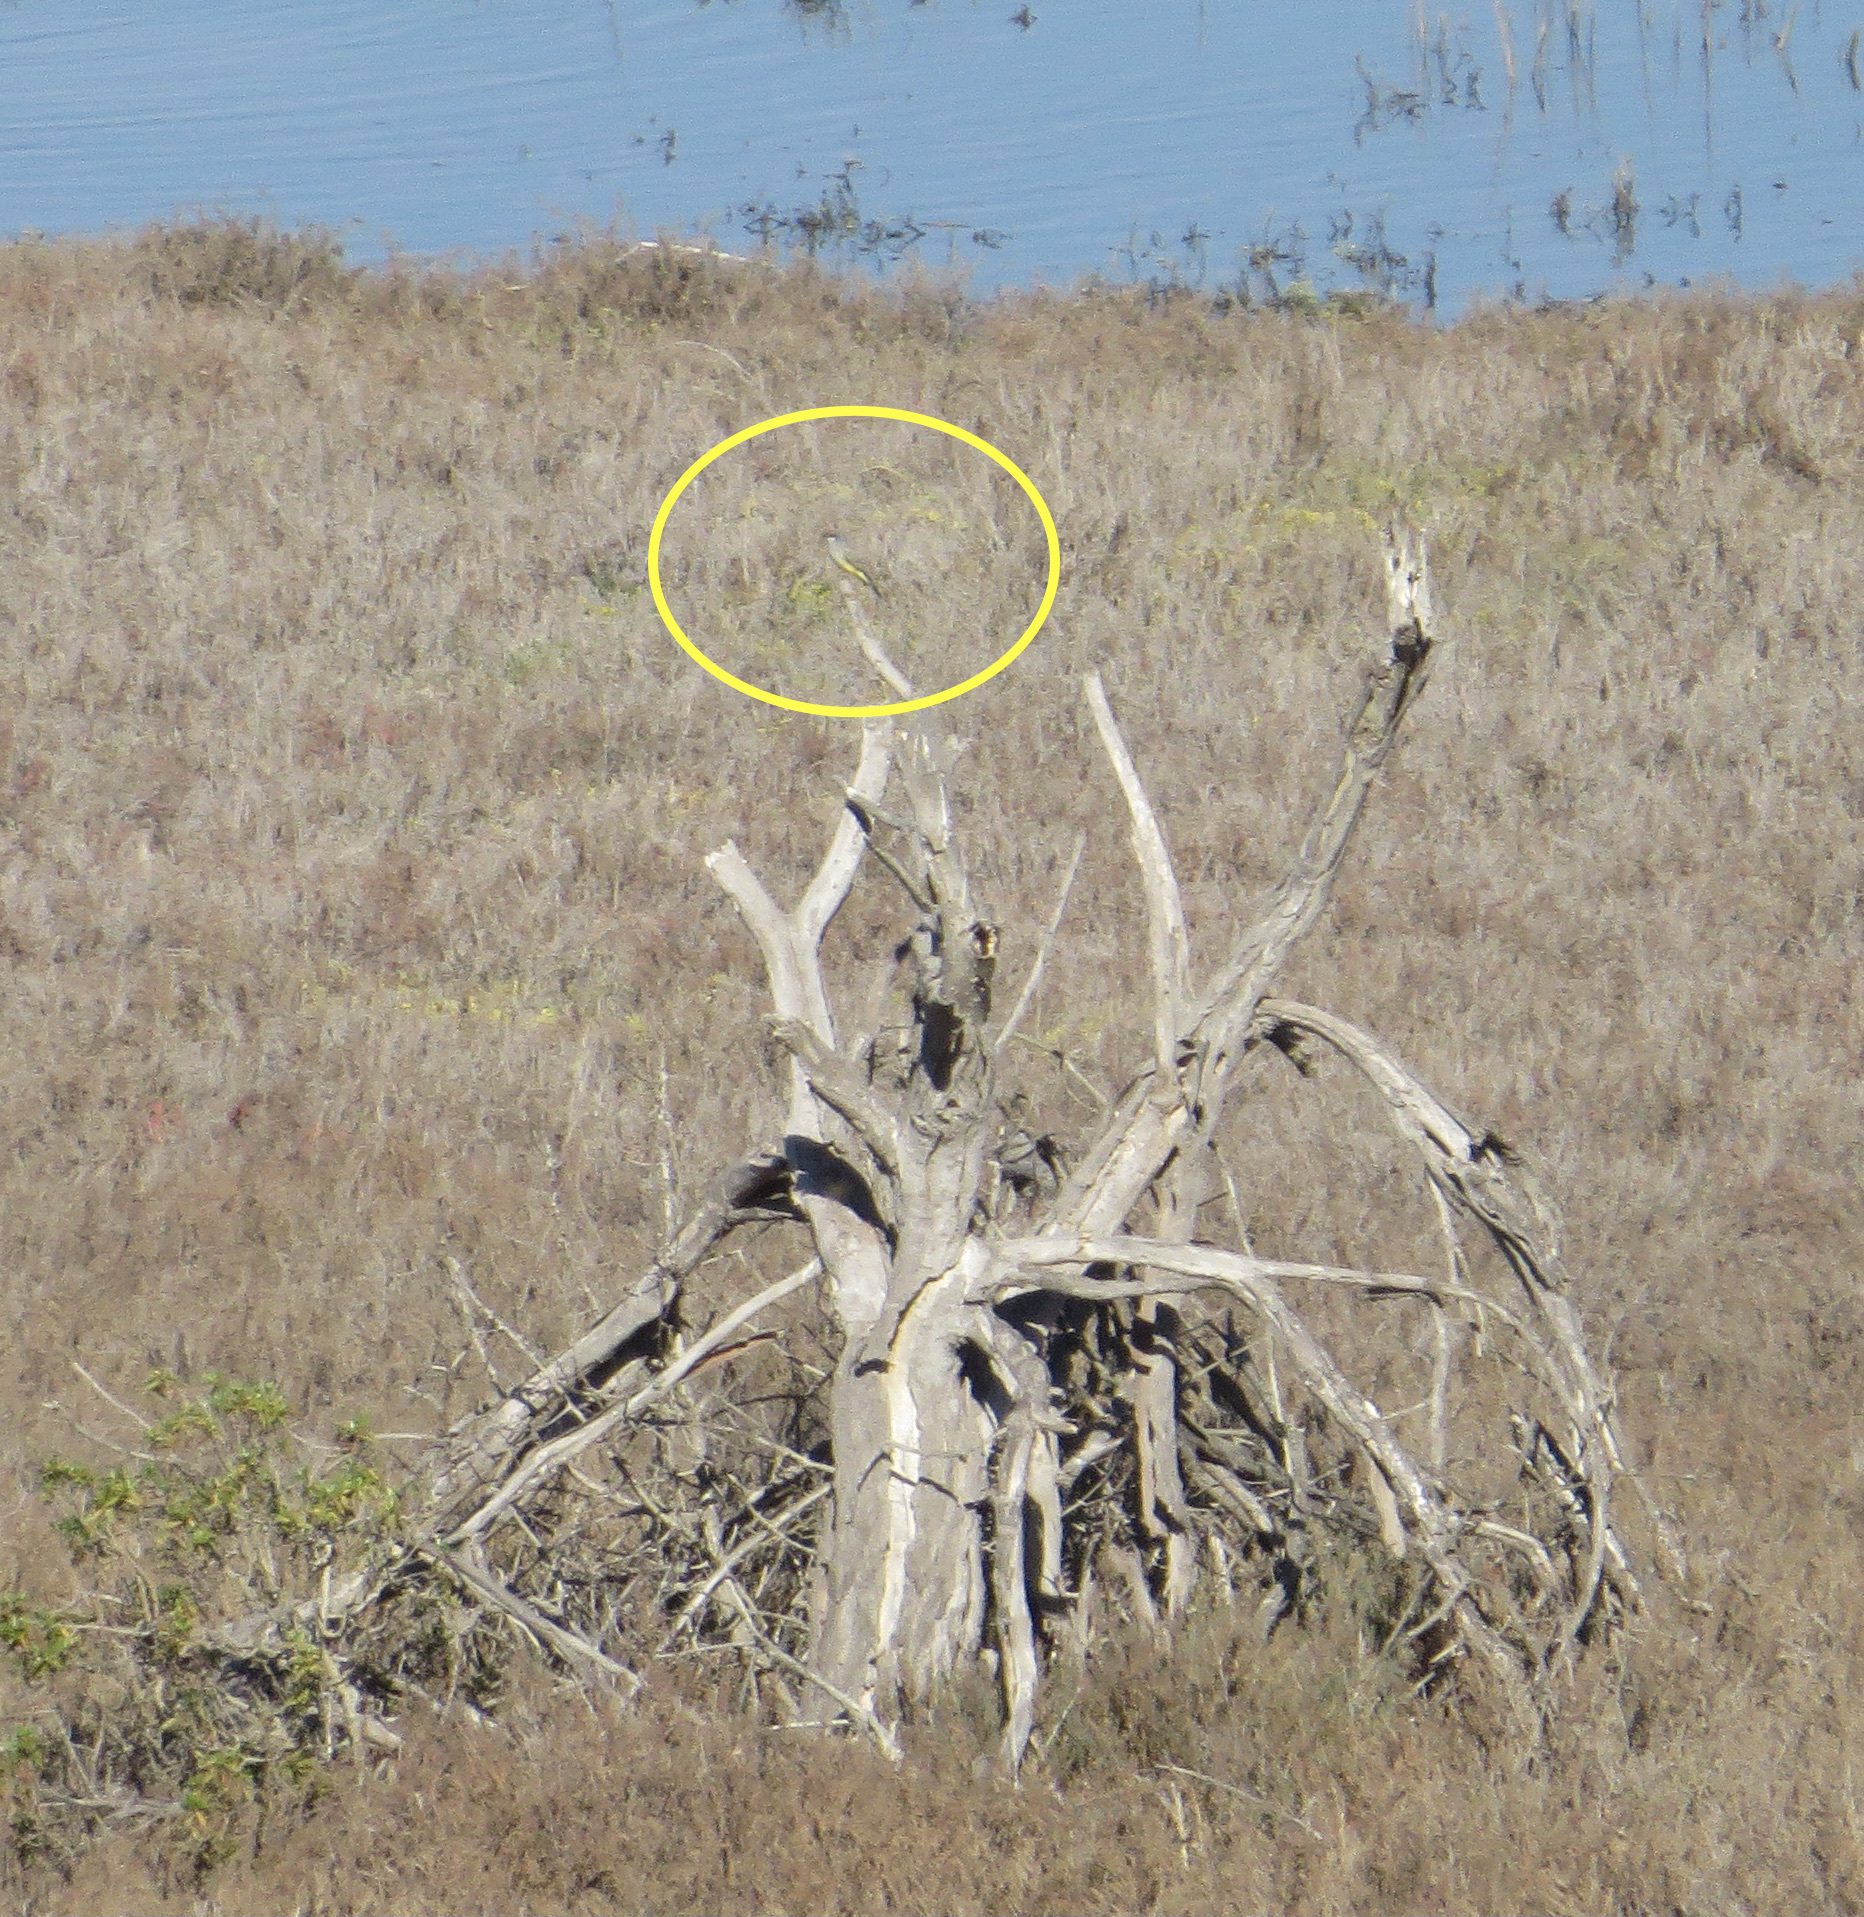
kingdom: Animalia
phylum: Chordata
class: Aves
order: Passeriformes
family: Tyrannidae
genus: Tyrannus
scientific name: Tyrannus vociferans
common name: Cassin's kingbird
